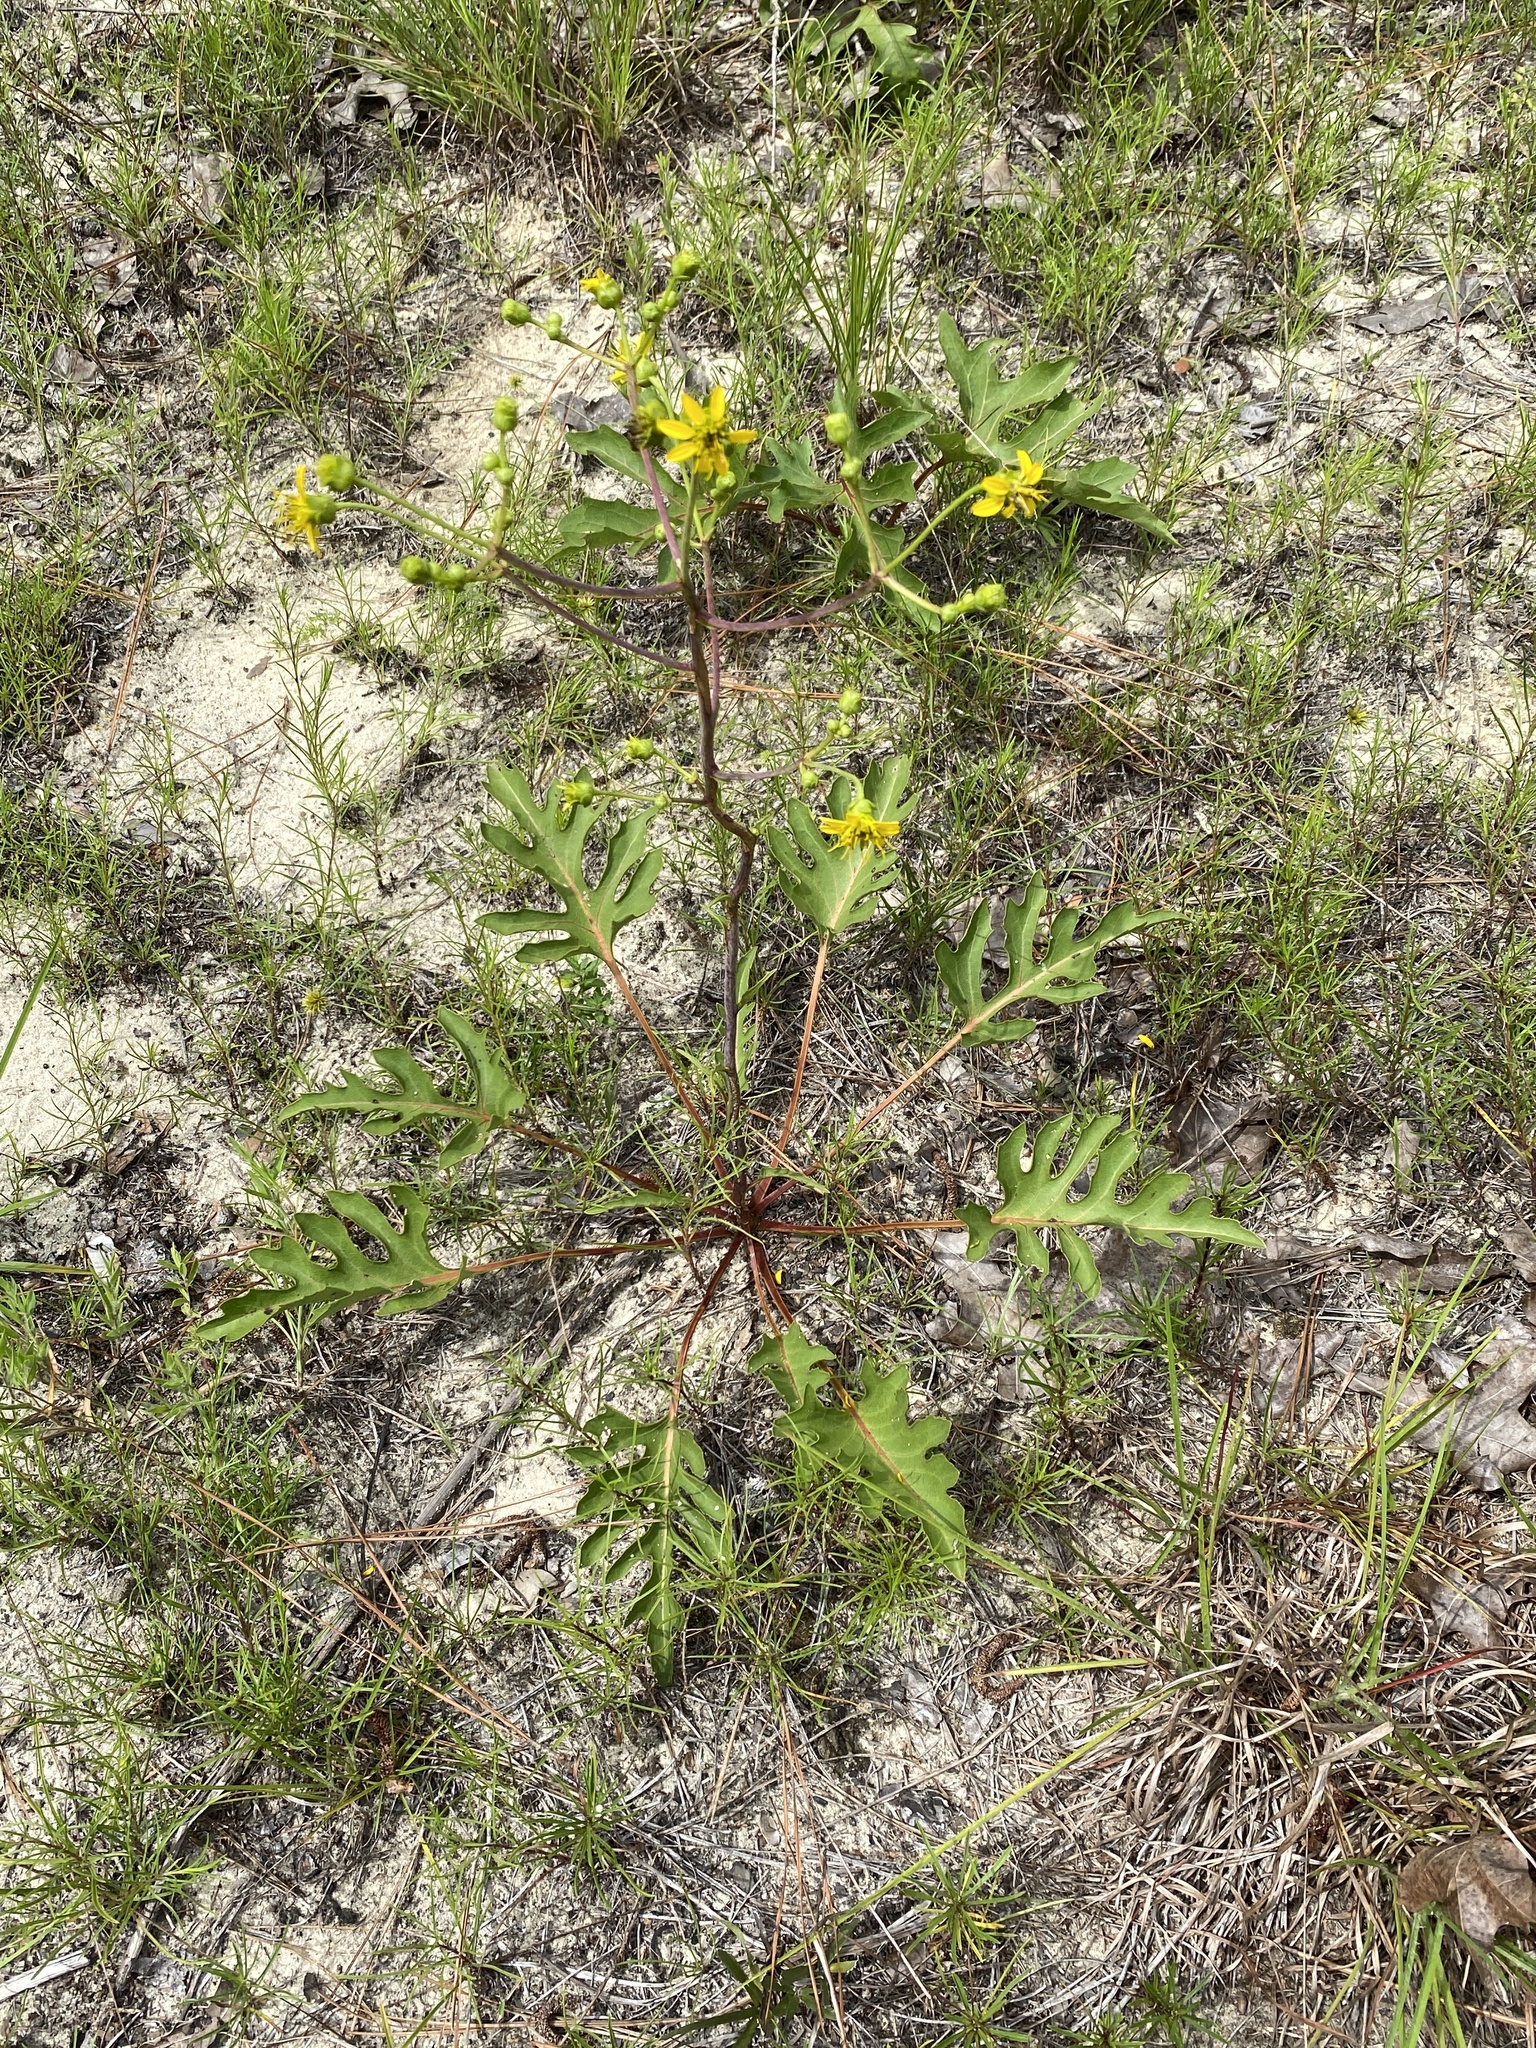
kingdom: Plantae
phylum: Tracheophyta
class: Magnoliopsida
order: Asterales
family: Asteraceae
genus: Silphium
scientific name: Silphium compositum
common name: Lesser basal-leaf rosinweed
